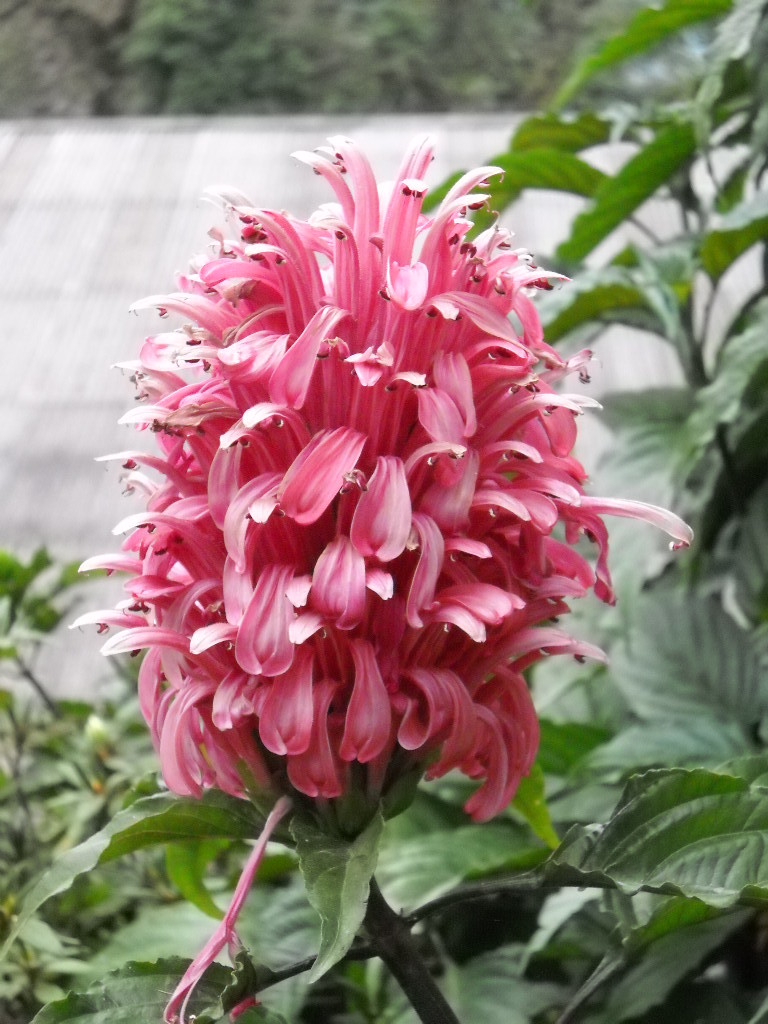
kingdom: Plantae
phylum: Tracheophyta
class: Magnoliopsida
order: Lamiales
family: Acanthaceae
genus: Justicia
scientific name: Justicia carnea
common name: Brazilian-plume
